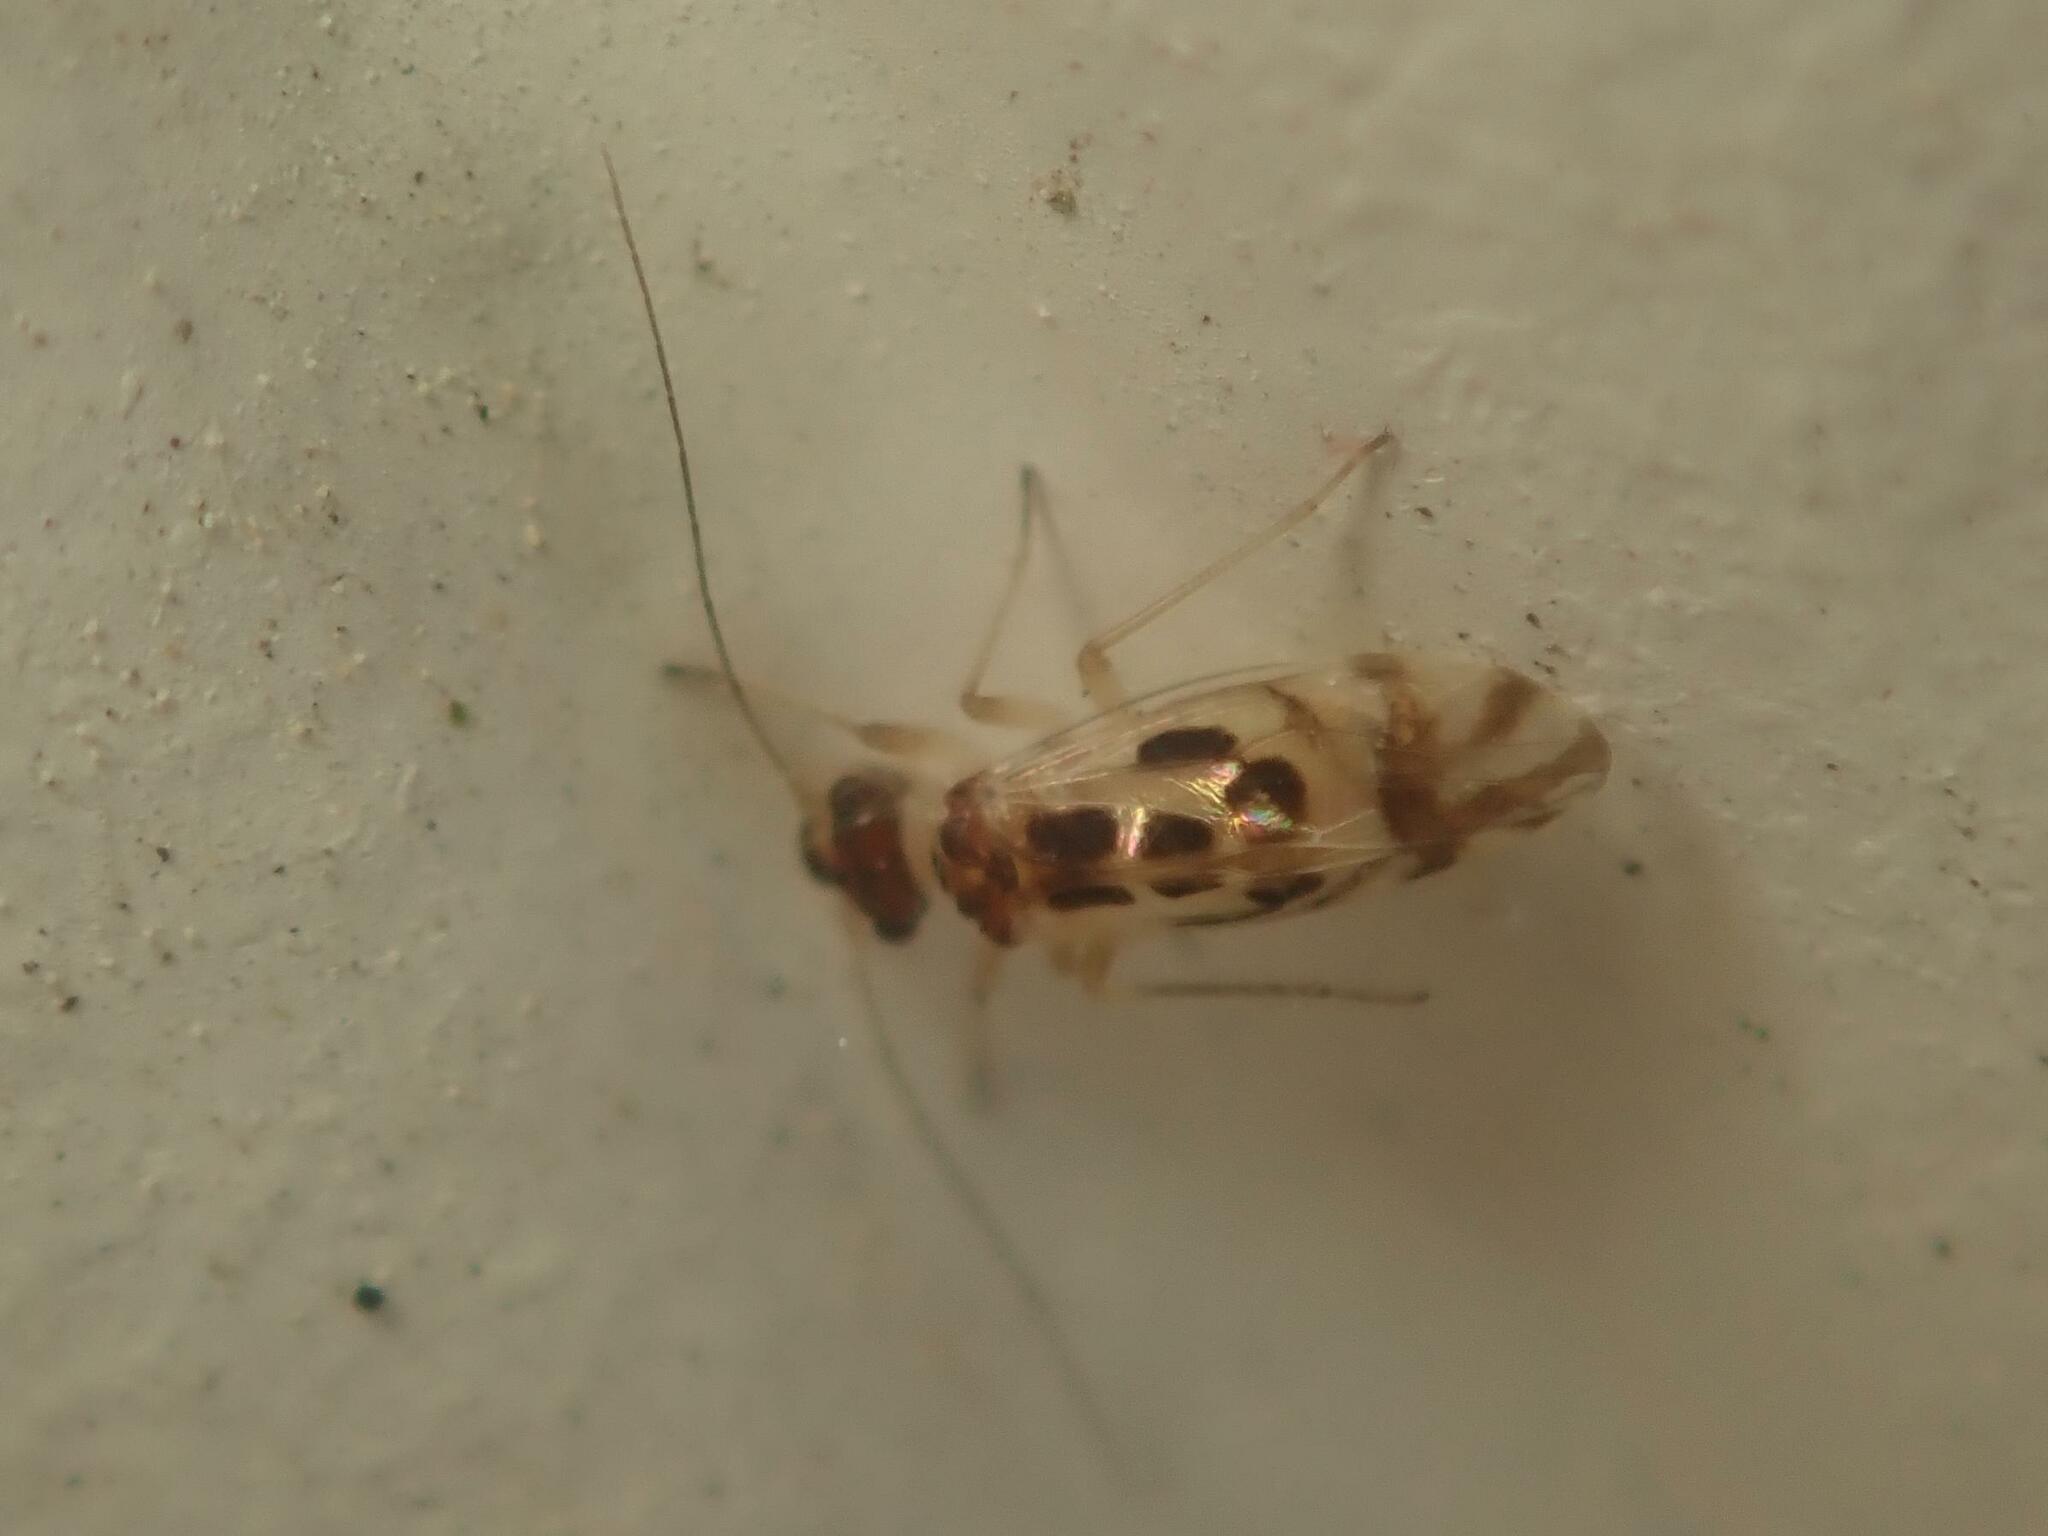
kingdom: Animalia
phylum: Arthropoda
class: Insecta
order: Psocodea
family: Stenopsocidae
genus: Graphopsocus
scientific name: Graphopsocus cruciatus
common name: Lizard bark louse
